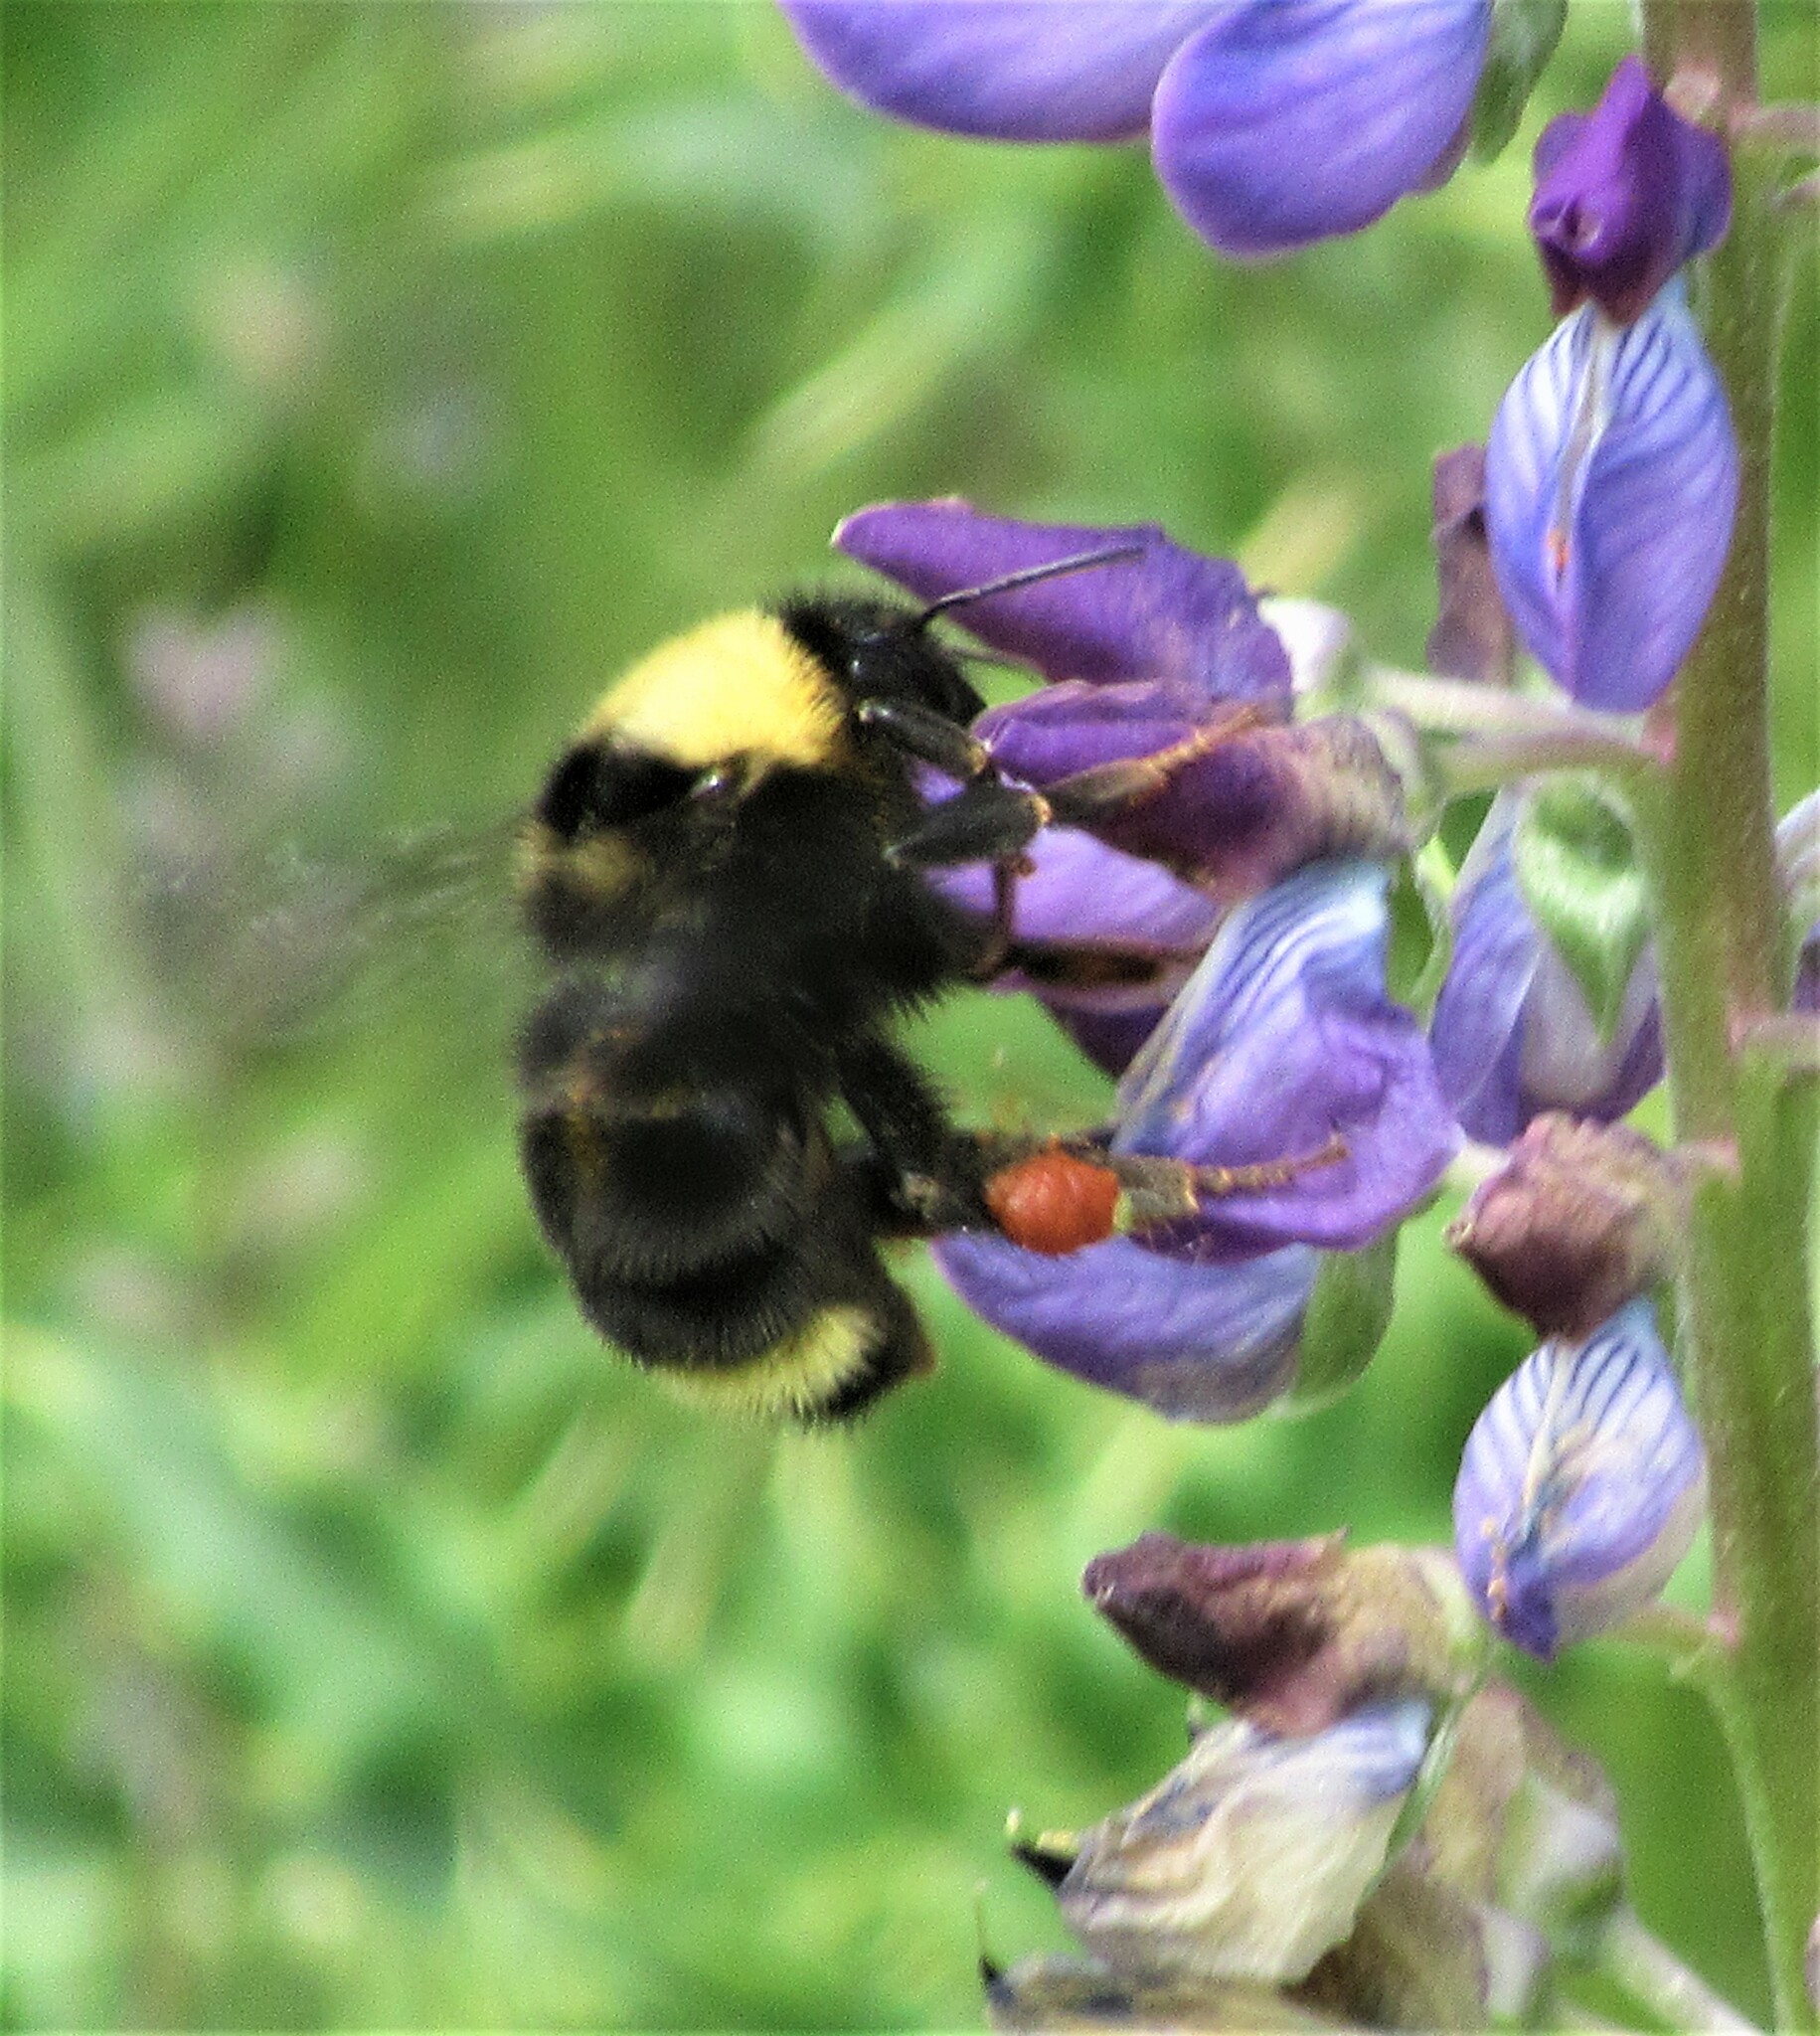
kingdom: Animalia
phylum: Arthropoda
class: Insecta
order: Hymenoptera
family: Apidae
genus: Bombus
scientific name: Bombus californicus
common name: California bumble bee
